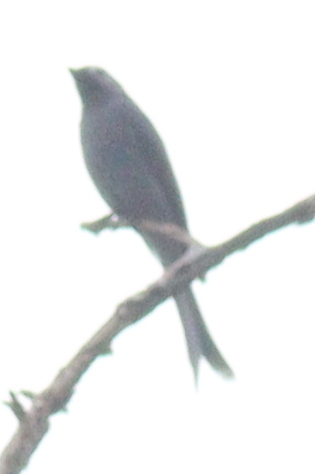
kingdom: Animalia
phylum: Chordata
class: Aves
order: Passeriformes
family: Dicruridae
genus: Dicrurus
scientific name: Dicrurus leucophaeus
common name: Ashy drongo
